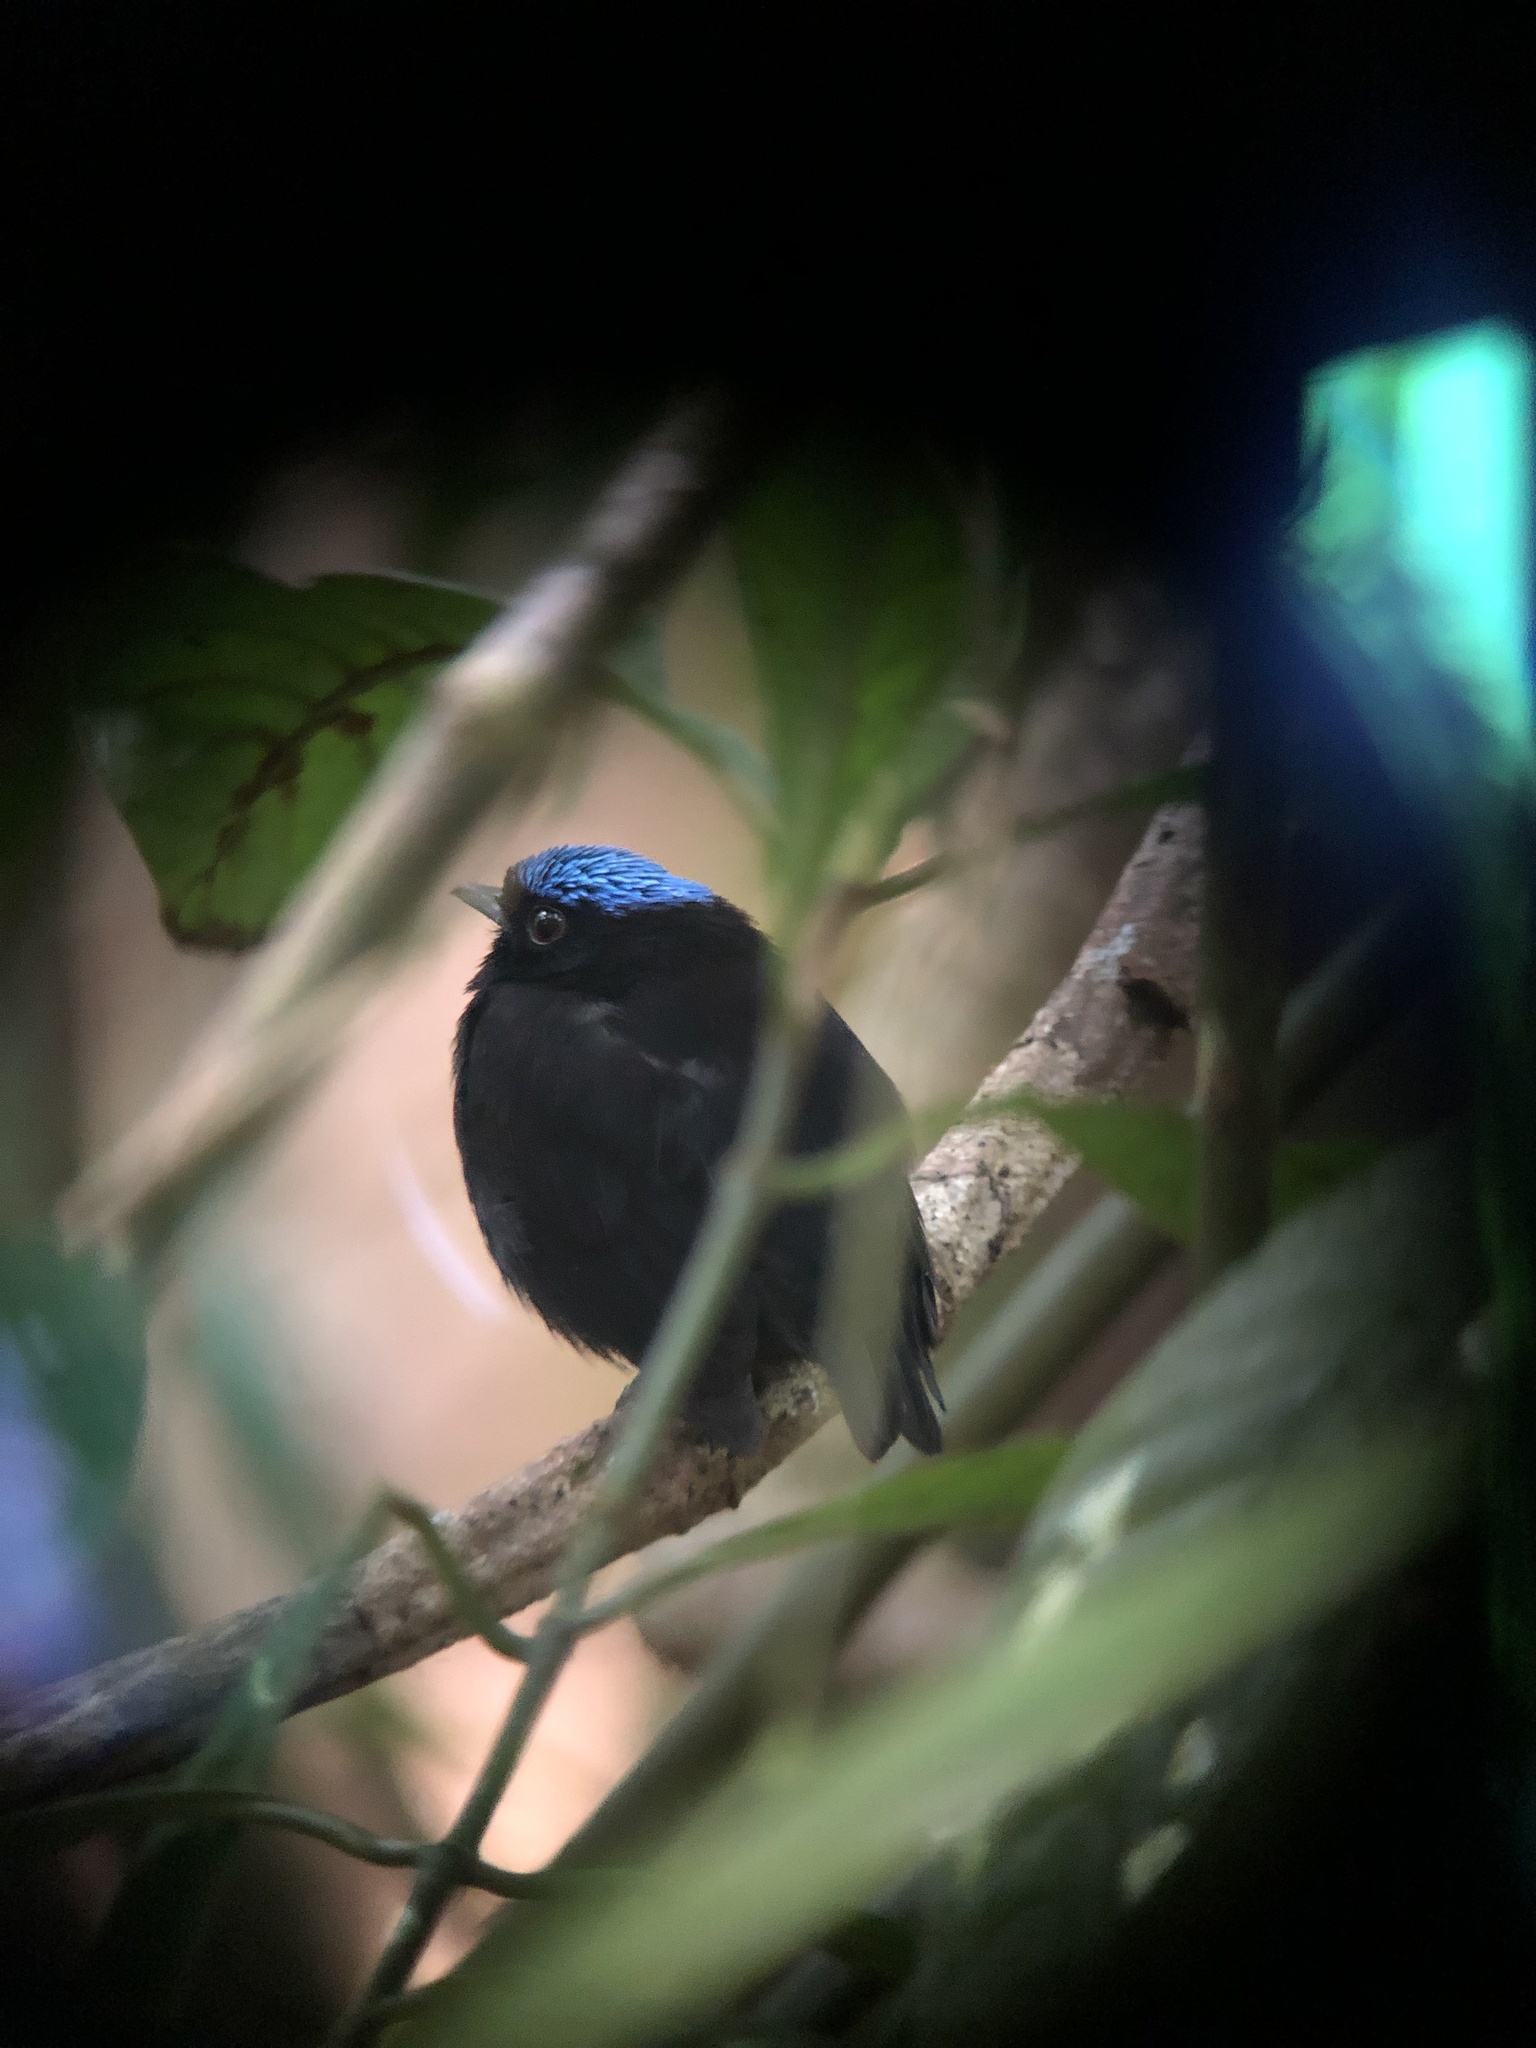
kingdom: Animalia
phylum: Chordata
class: Aves
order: Passeriformes
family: Pipridae
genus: Lepidothrix
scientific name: Lepidothrix coronata
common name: Blue-crowned manakin
